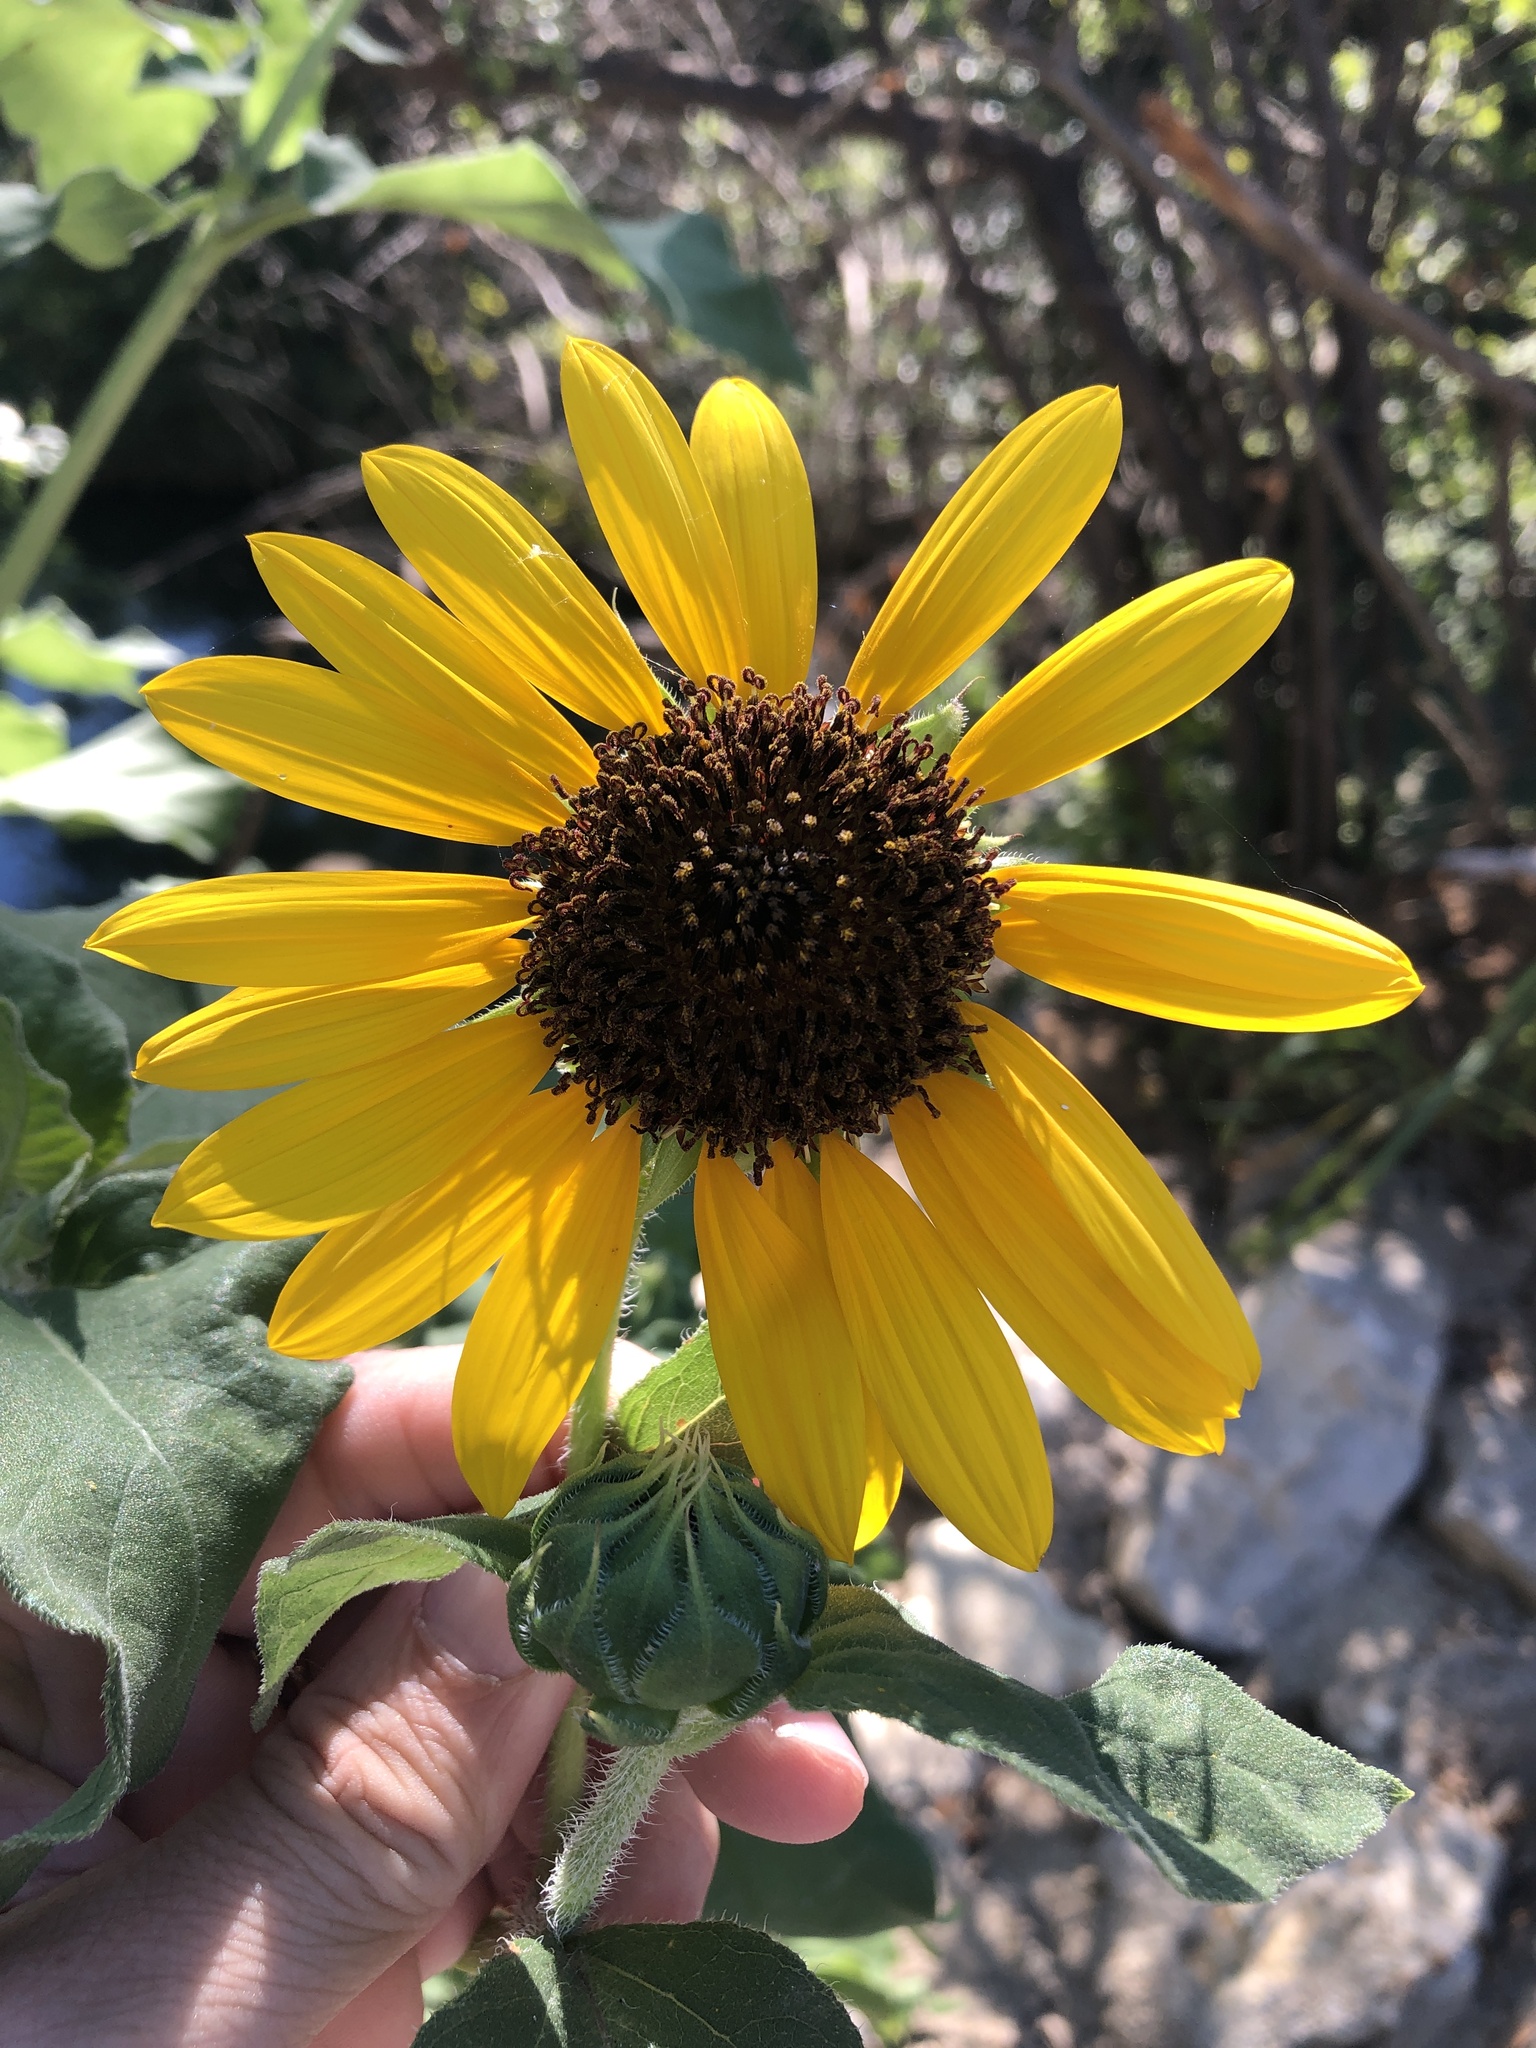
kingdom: Plantae
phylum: Tracheophyta
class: Magnoliopsida
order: Asterales
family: Asteraceae
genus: Helianthus
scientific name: Helianthus annuus
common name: Sunflower
